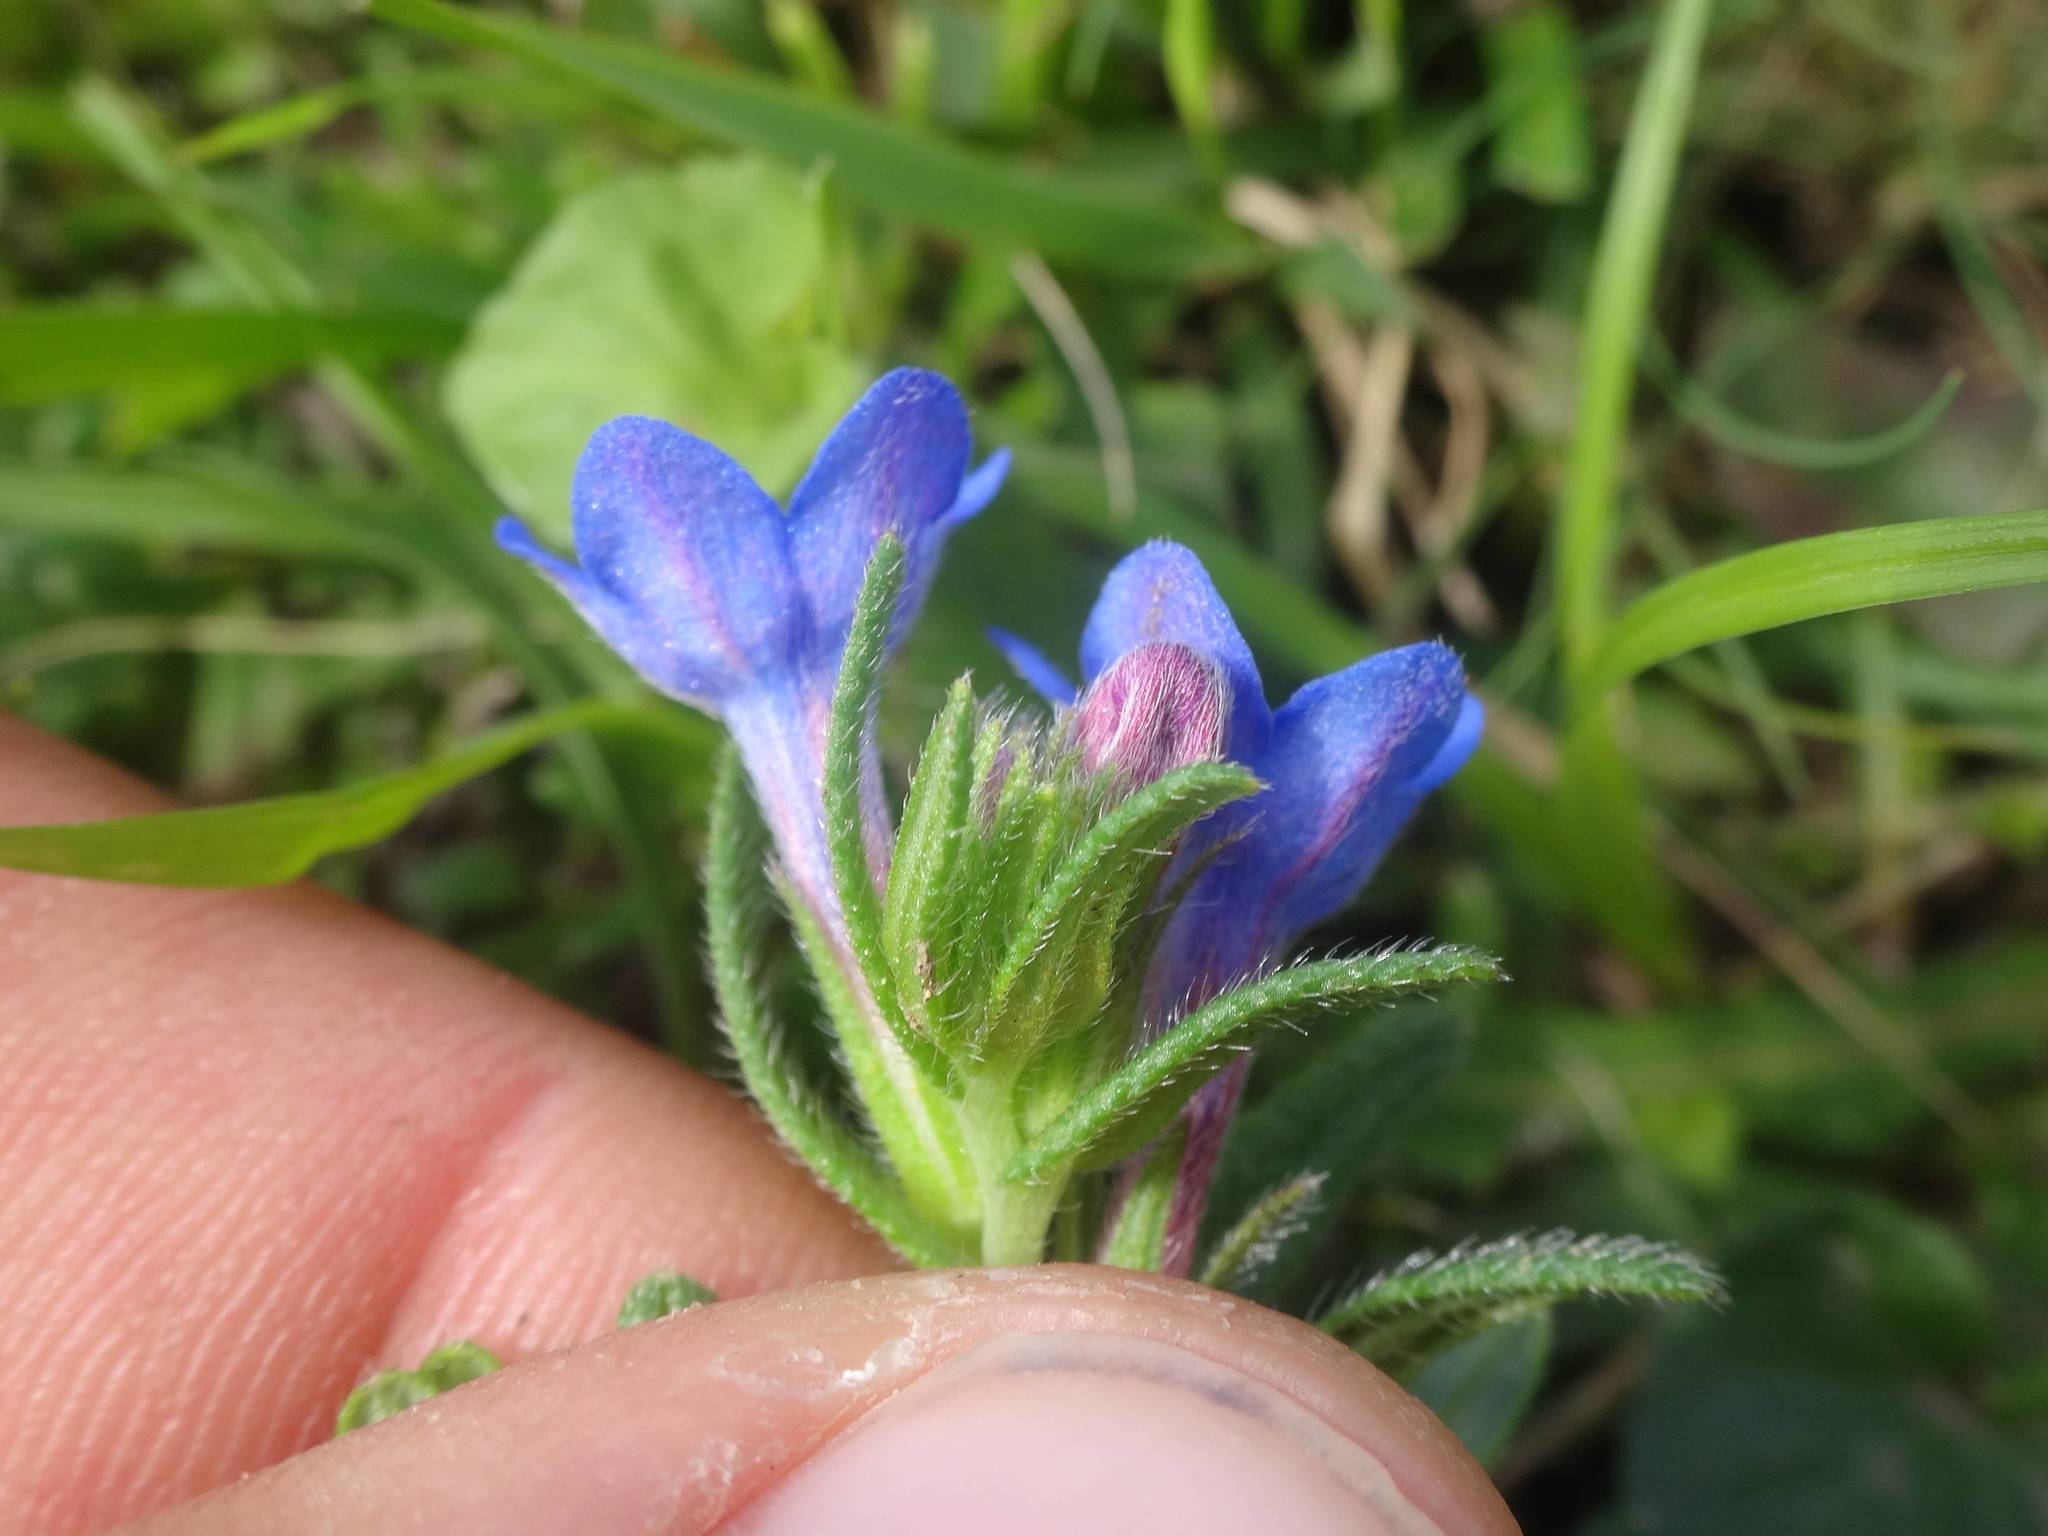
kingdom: Plantae
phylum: Tracheophyta
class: Magnoliopsida
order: Boraginales
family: Boraginaceae
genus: Glandora
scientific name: Glandora prostrata
